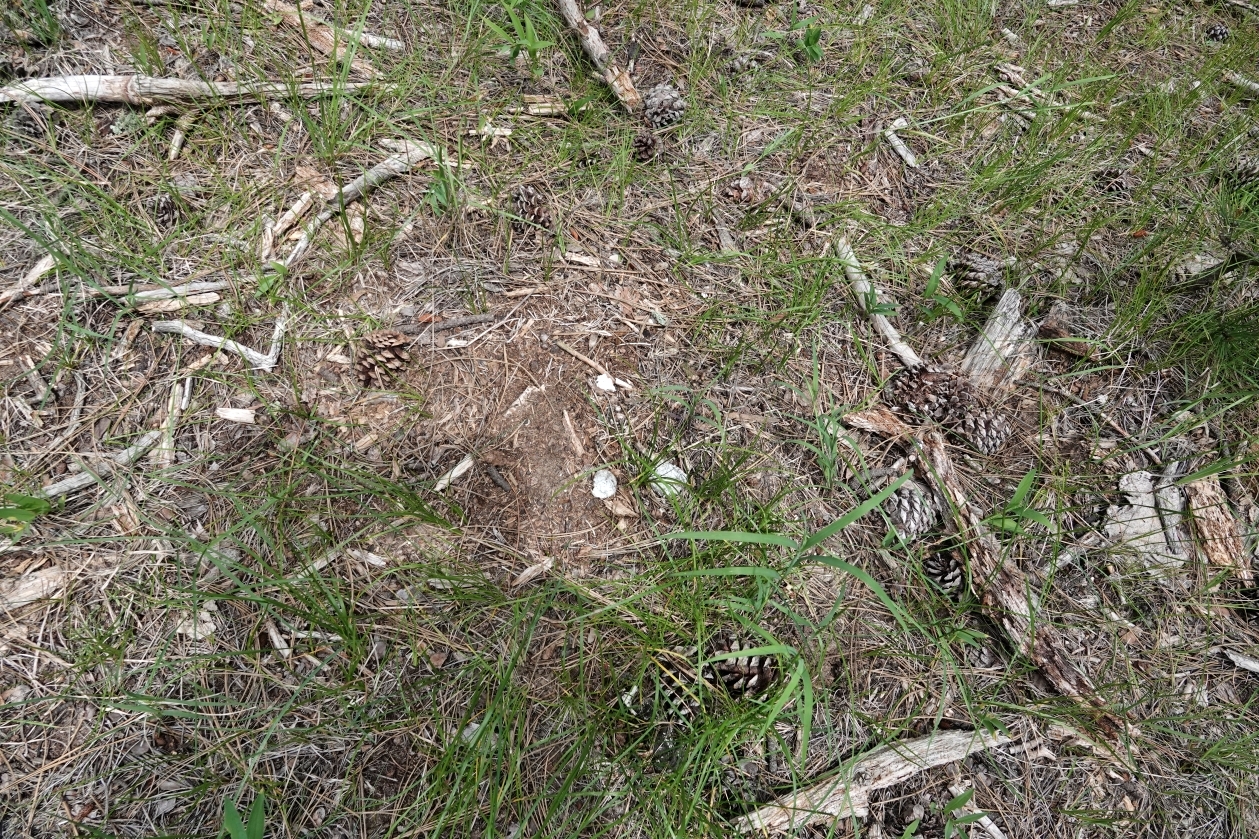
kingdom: Animalia
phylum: Chordata
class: Mammalia
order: Artiodactyla
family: Cervidae
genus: Cervus
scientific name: Cervus elaphus
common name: Red deer
